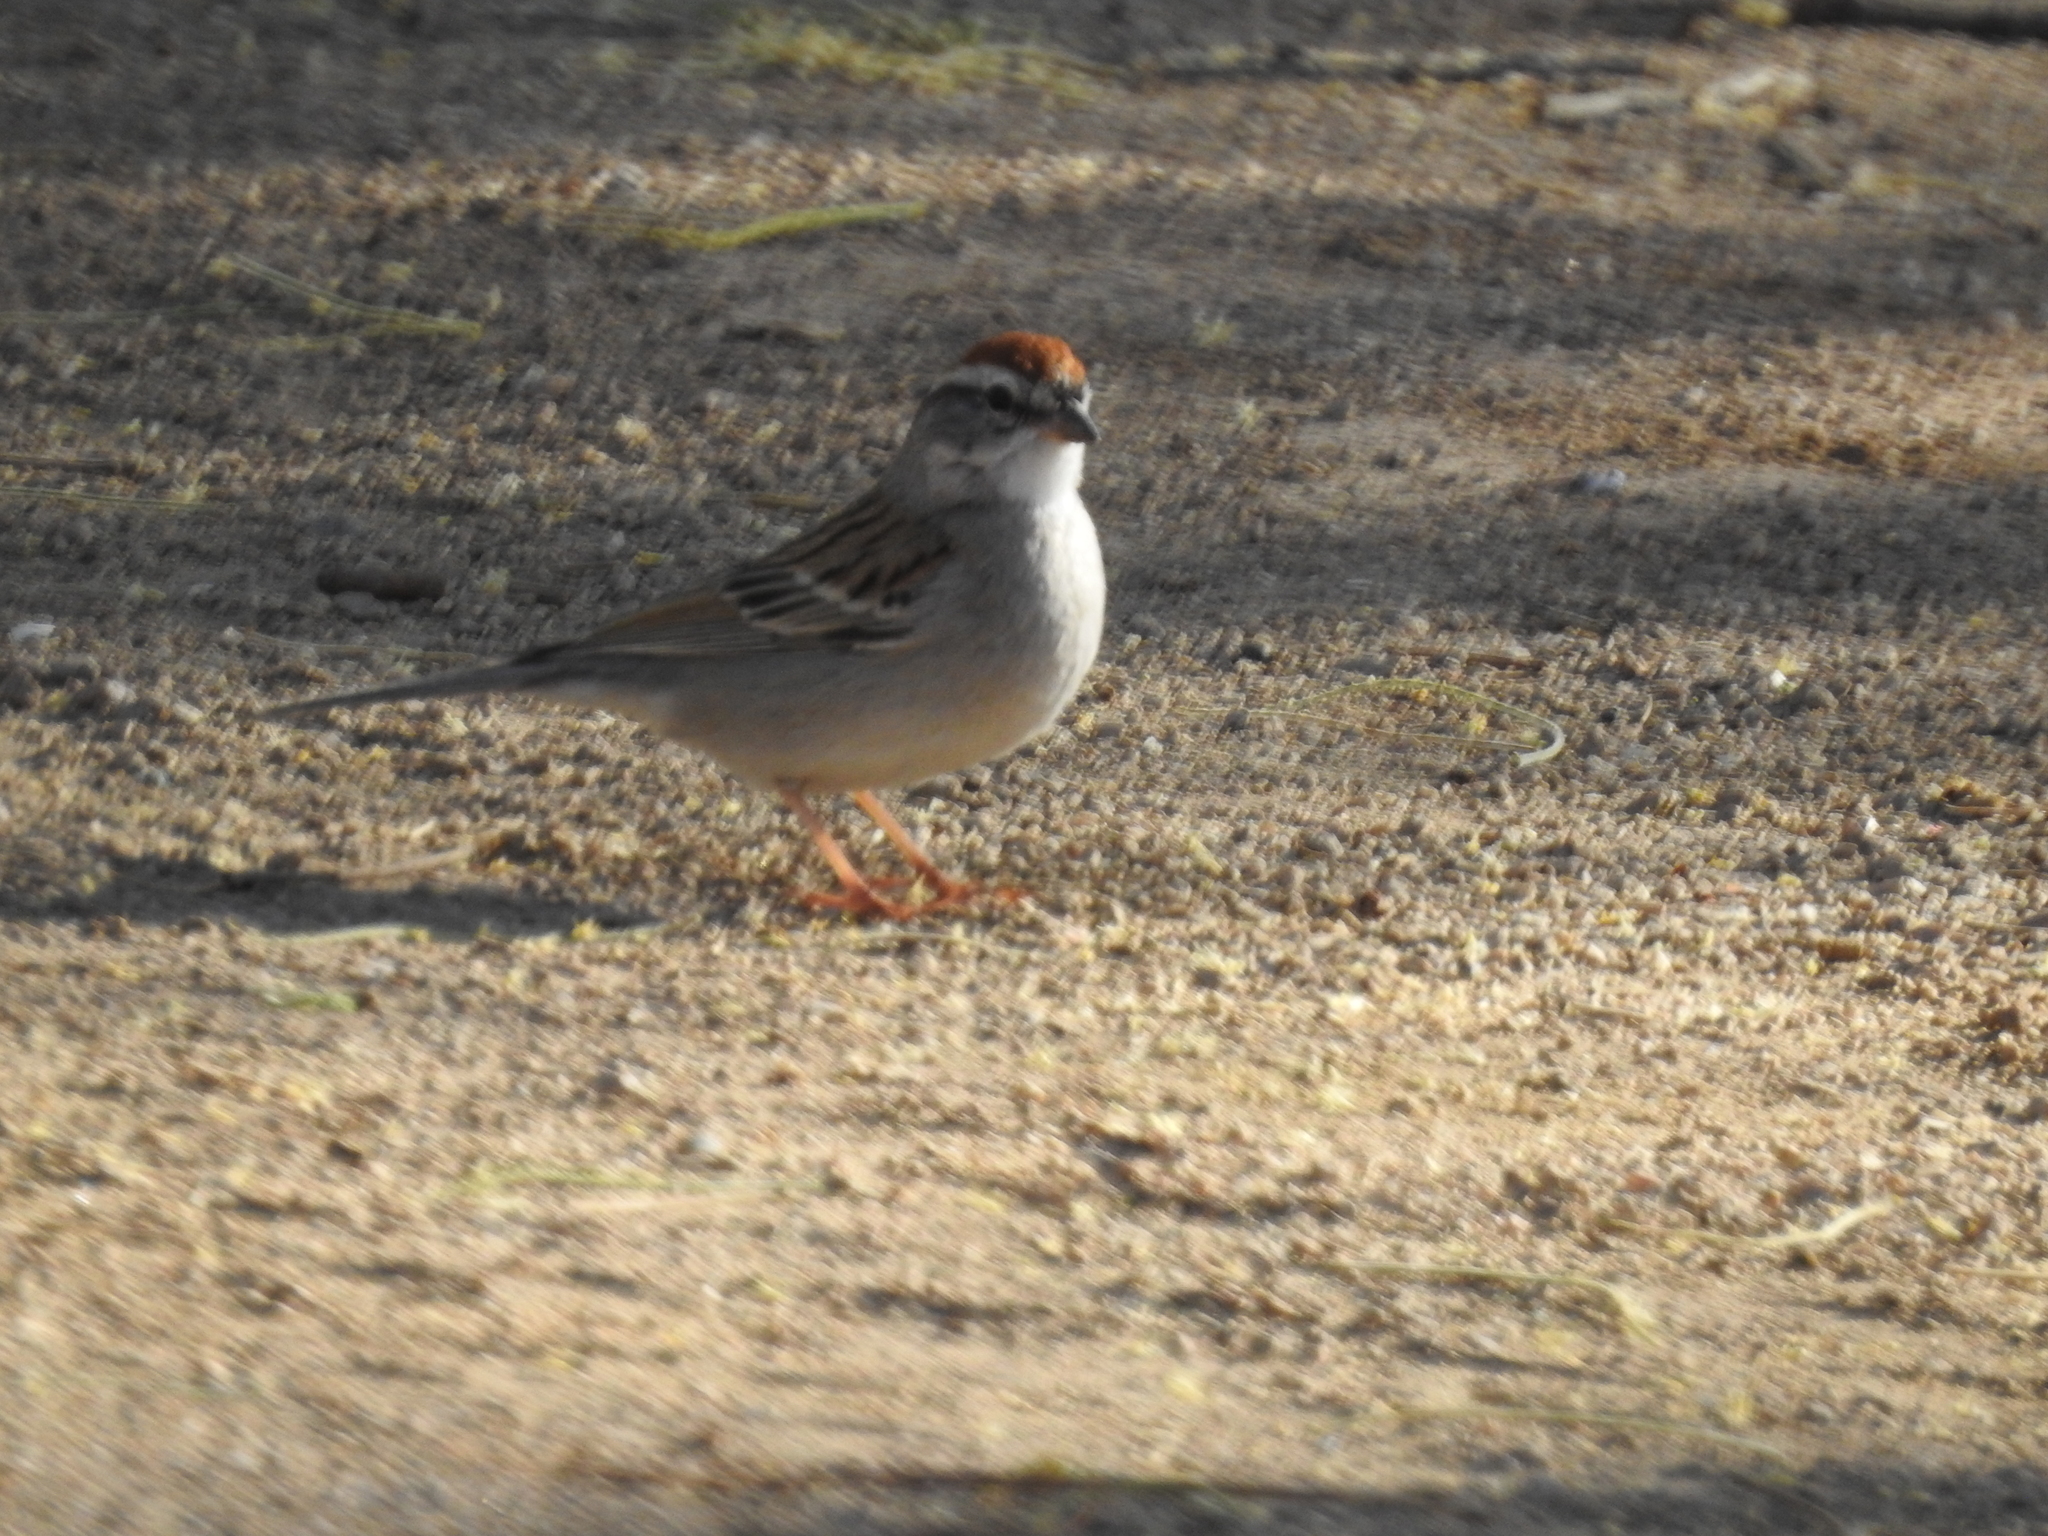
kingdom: Animalia
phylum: Chordata
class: Aves
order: Passeriformes
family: Passerellidae
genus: Spizella
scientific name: Spizella passerina
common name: Chipping sparrow
